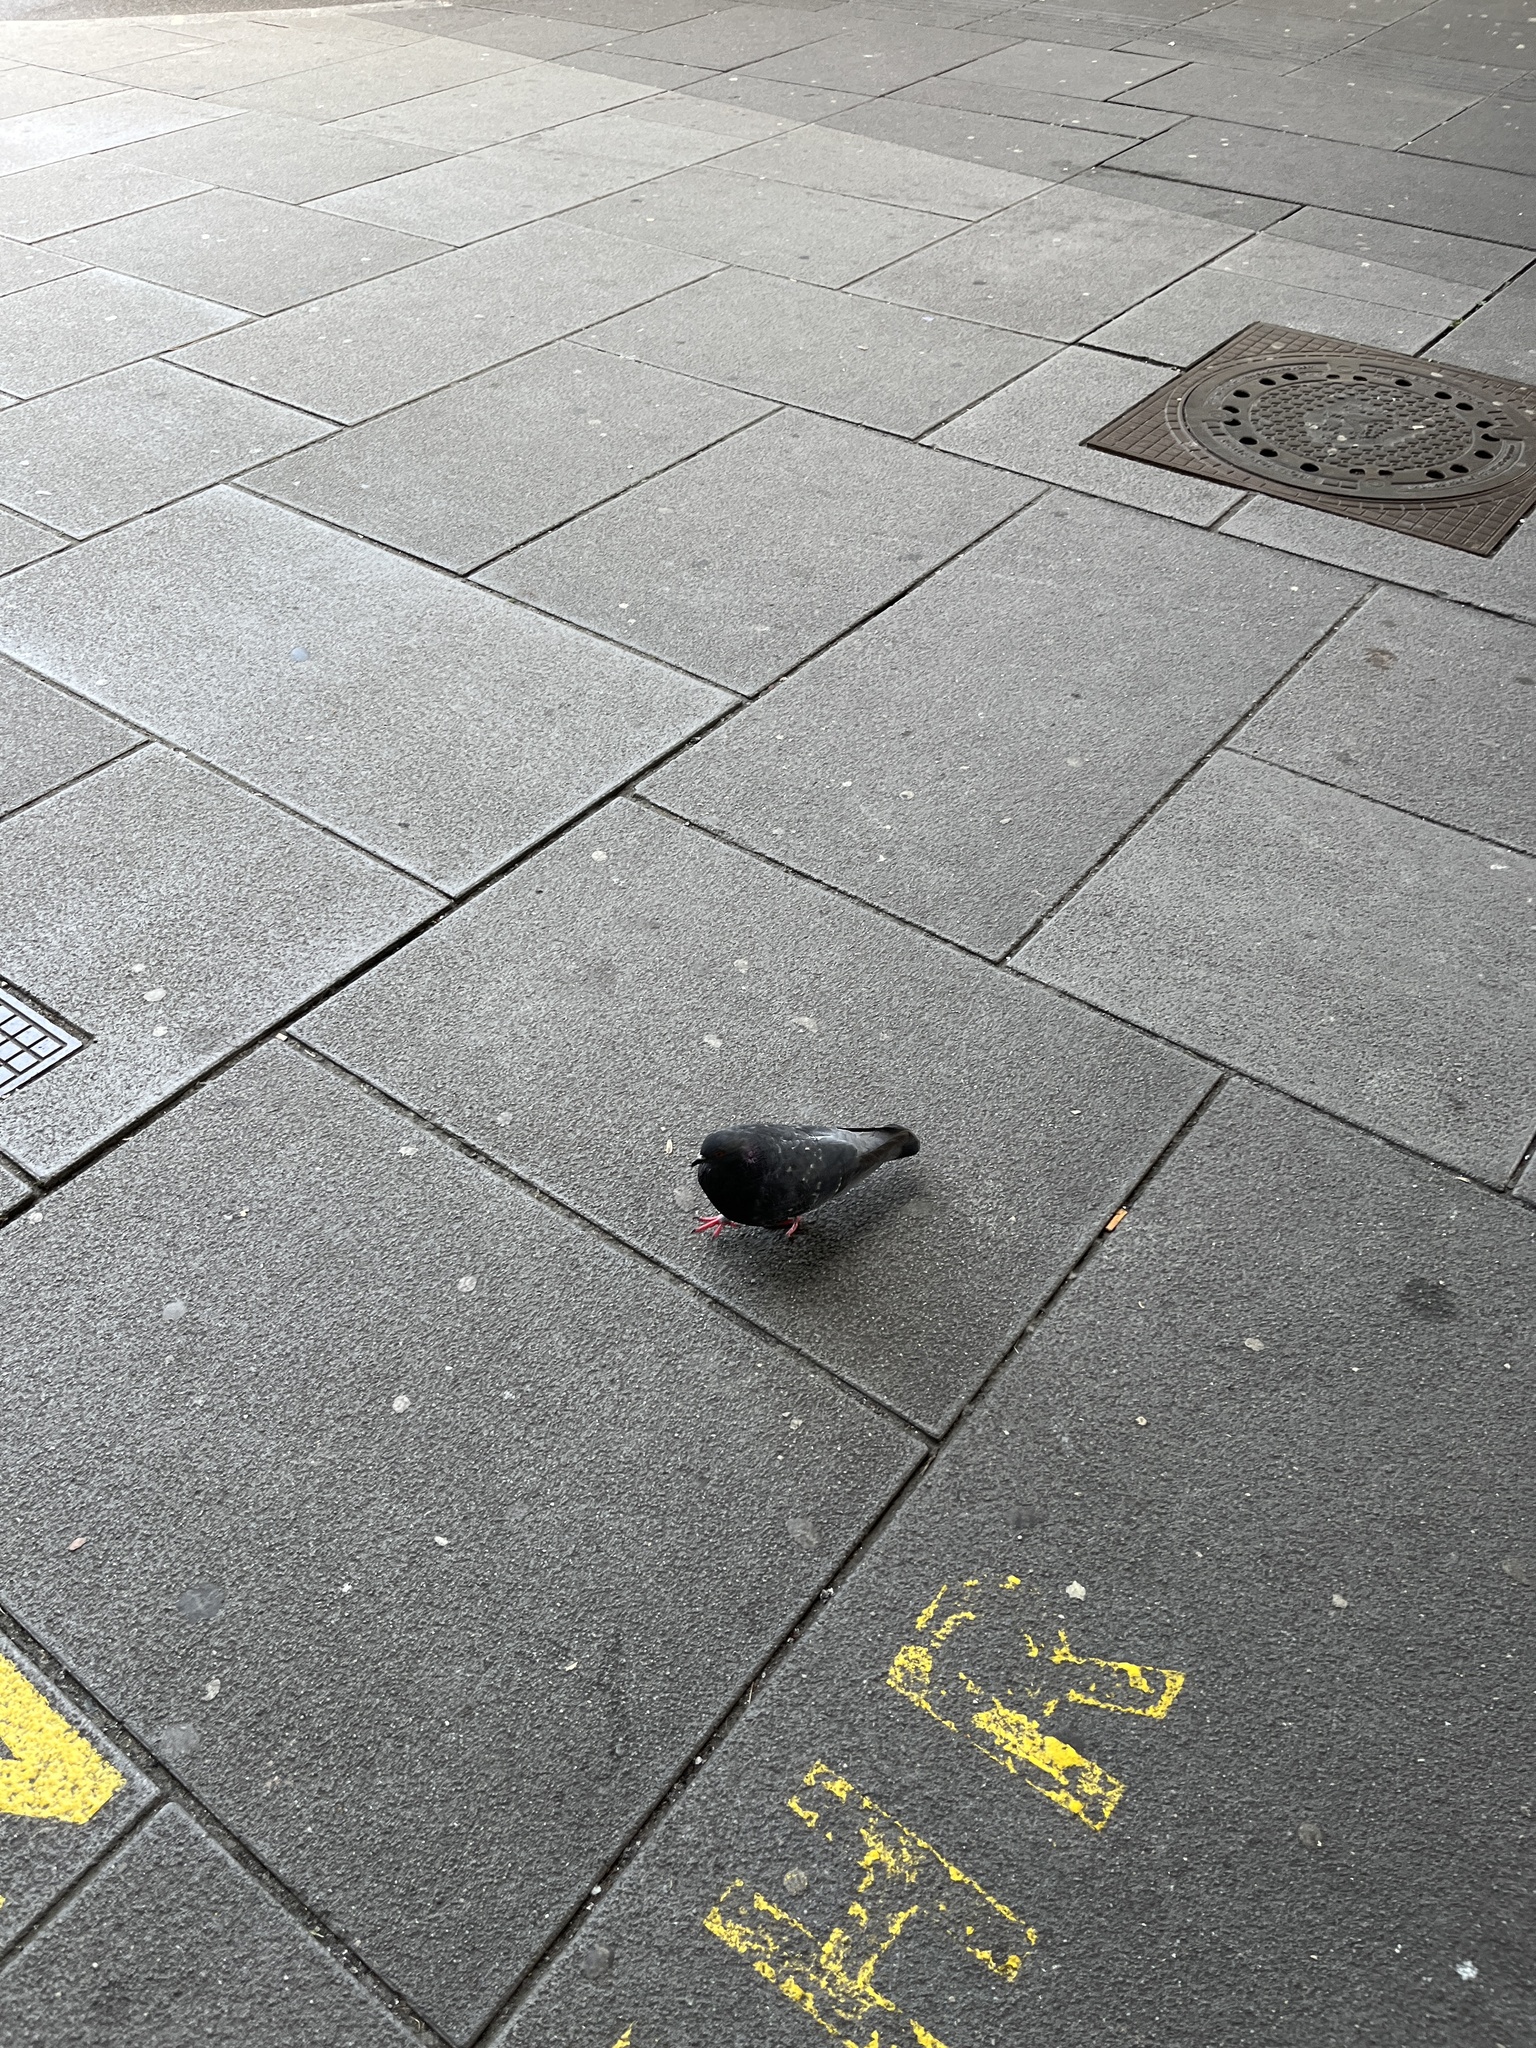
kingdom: Animalia
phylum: Chordata
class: Aves
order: Columbiformes
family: Columbidae
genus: Columba
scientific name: Columba livia
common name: Rock pigeon
